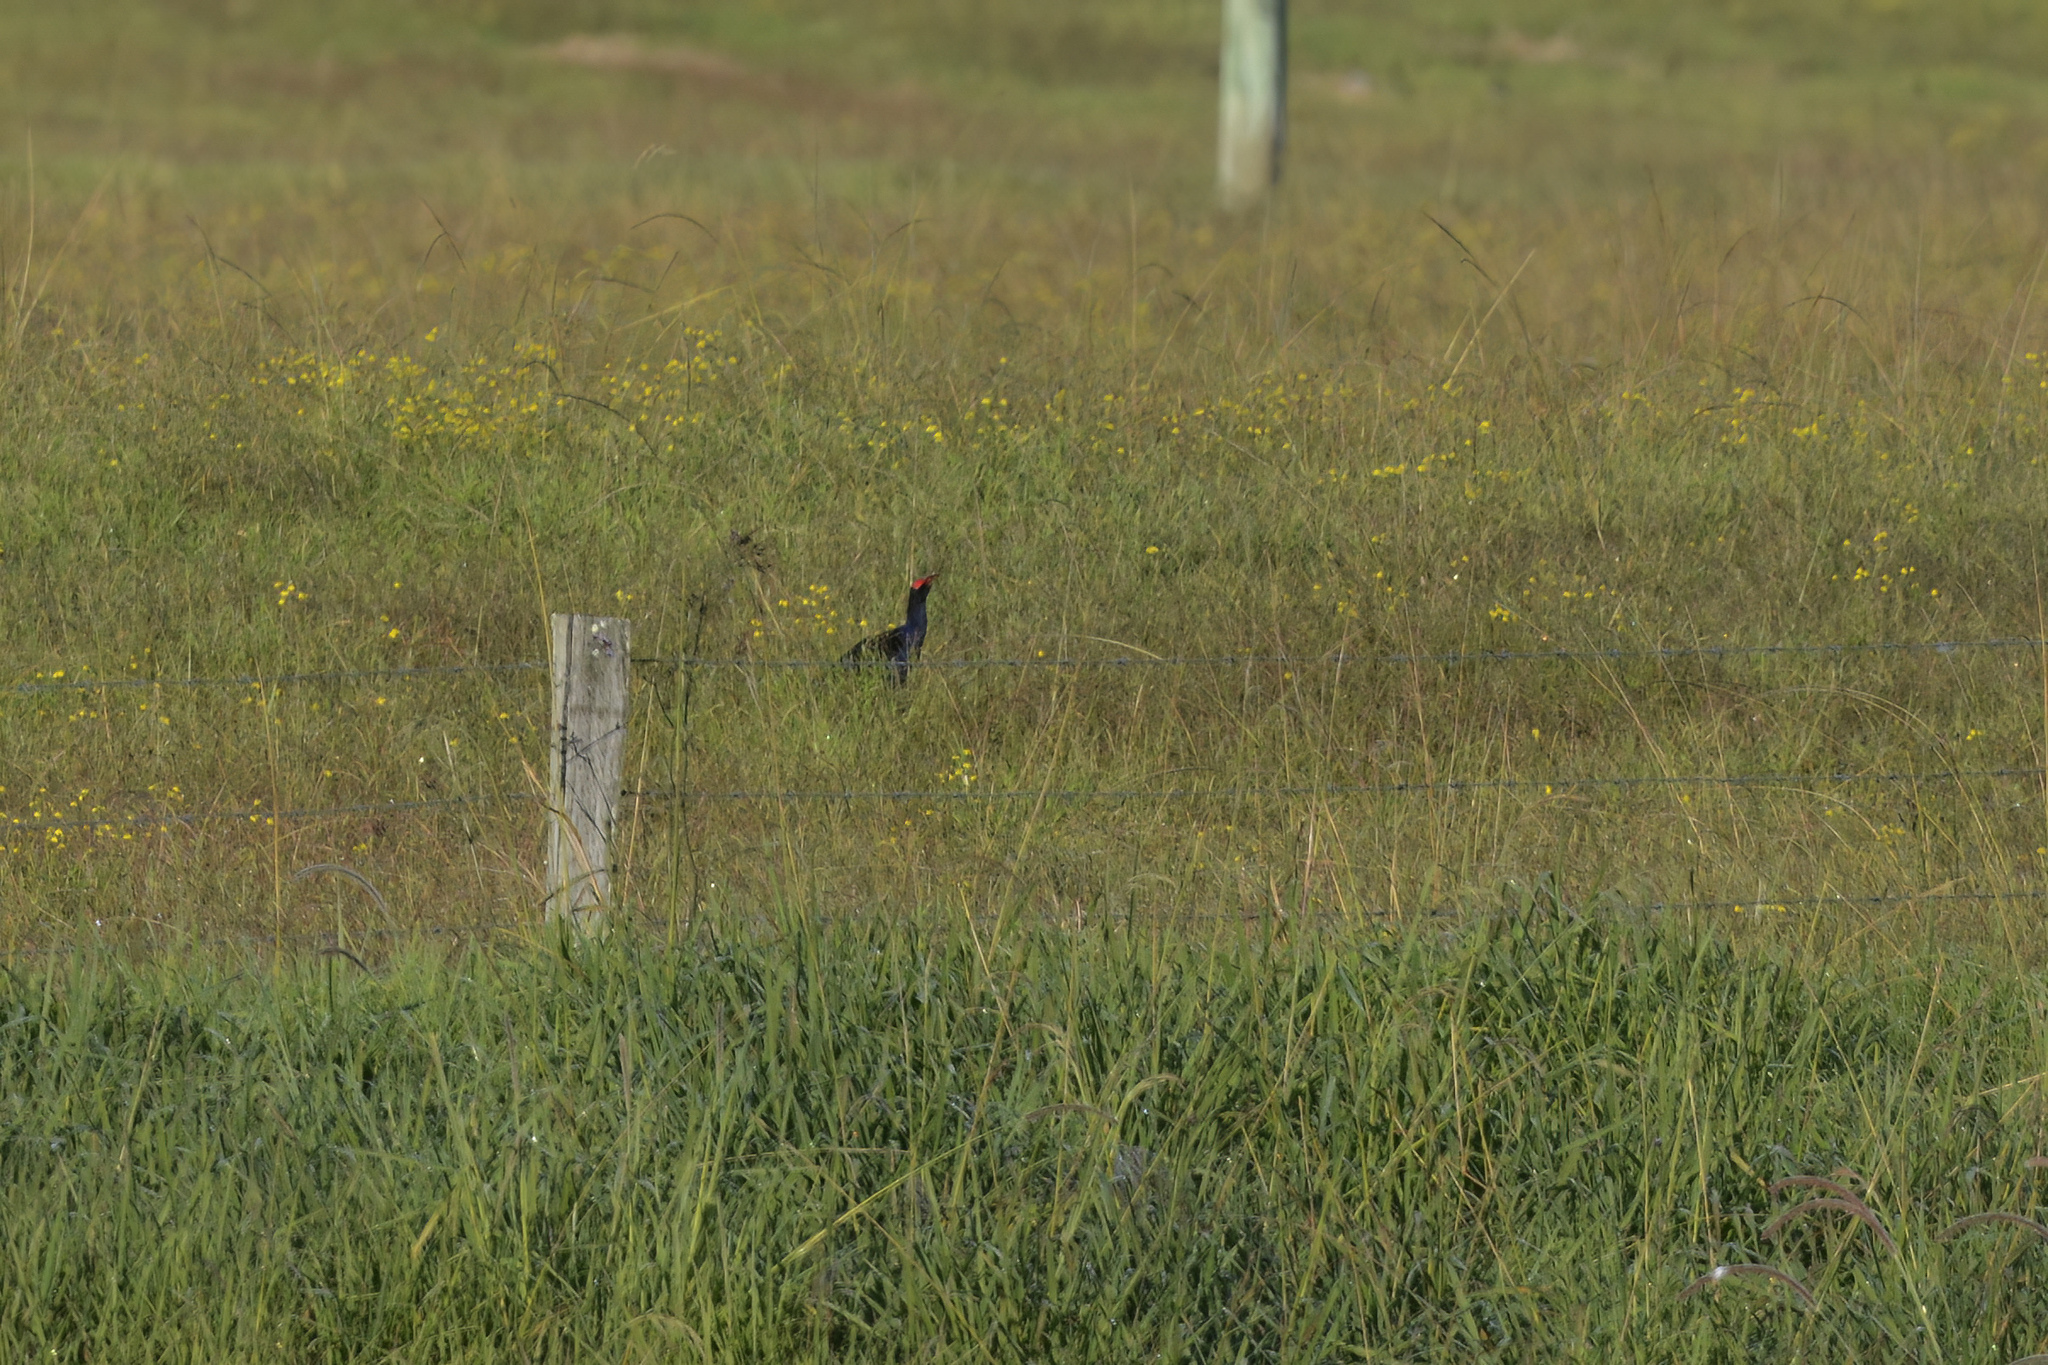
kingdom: Animalia
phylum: Chordata
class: Aves
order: Gruiformes
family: Rallidae
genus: Porphyrio
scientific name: Porphyrio melanotus
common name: Australasian swamphen
